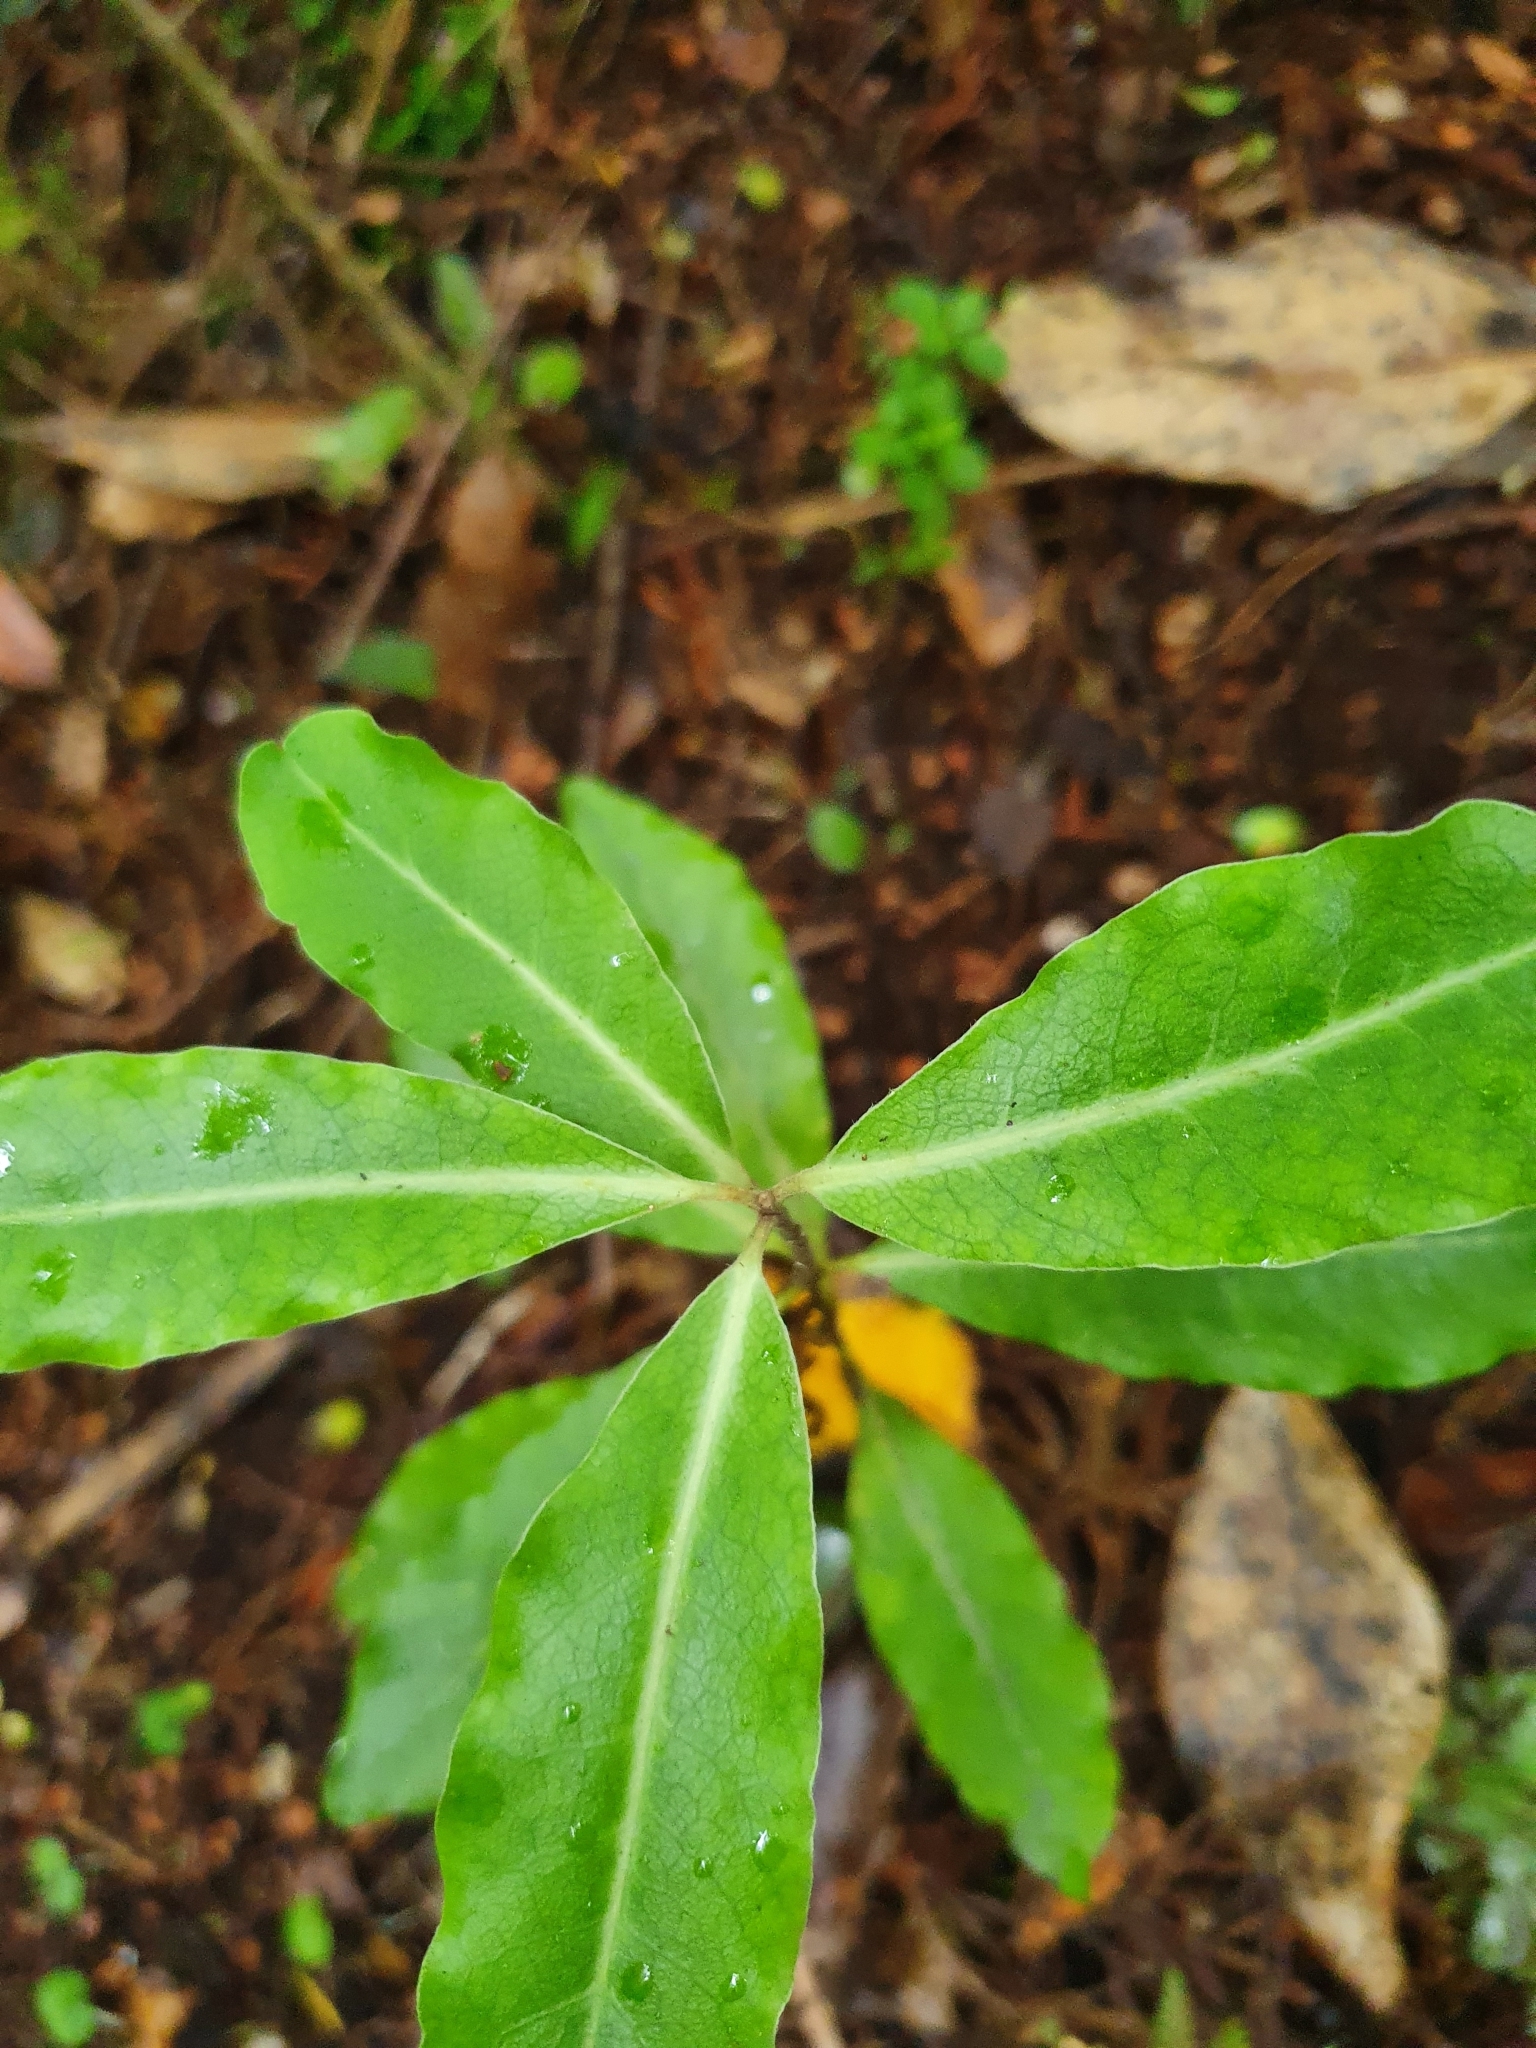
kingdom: Plantae
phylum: Tracheophyta
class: Magnoliopsida
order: Apiales
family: Pittosporaceae
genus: Pittosporum
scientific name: Pittosporum eugenioides
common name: Lemonwood
